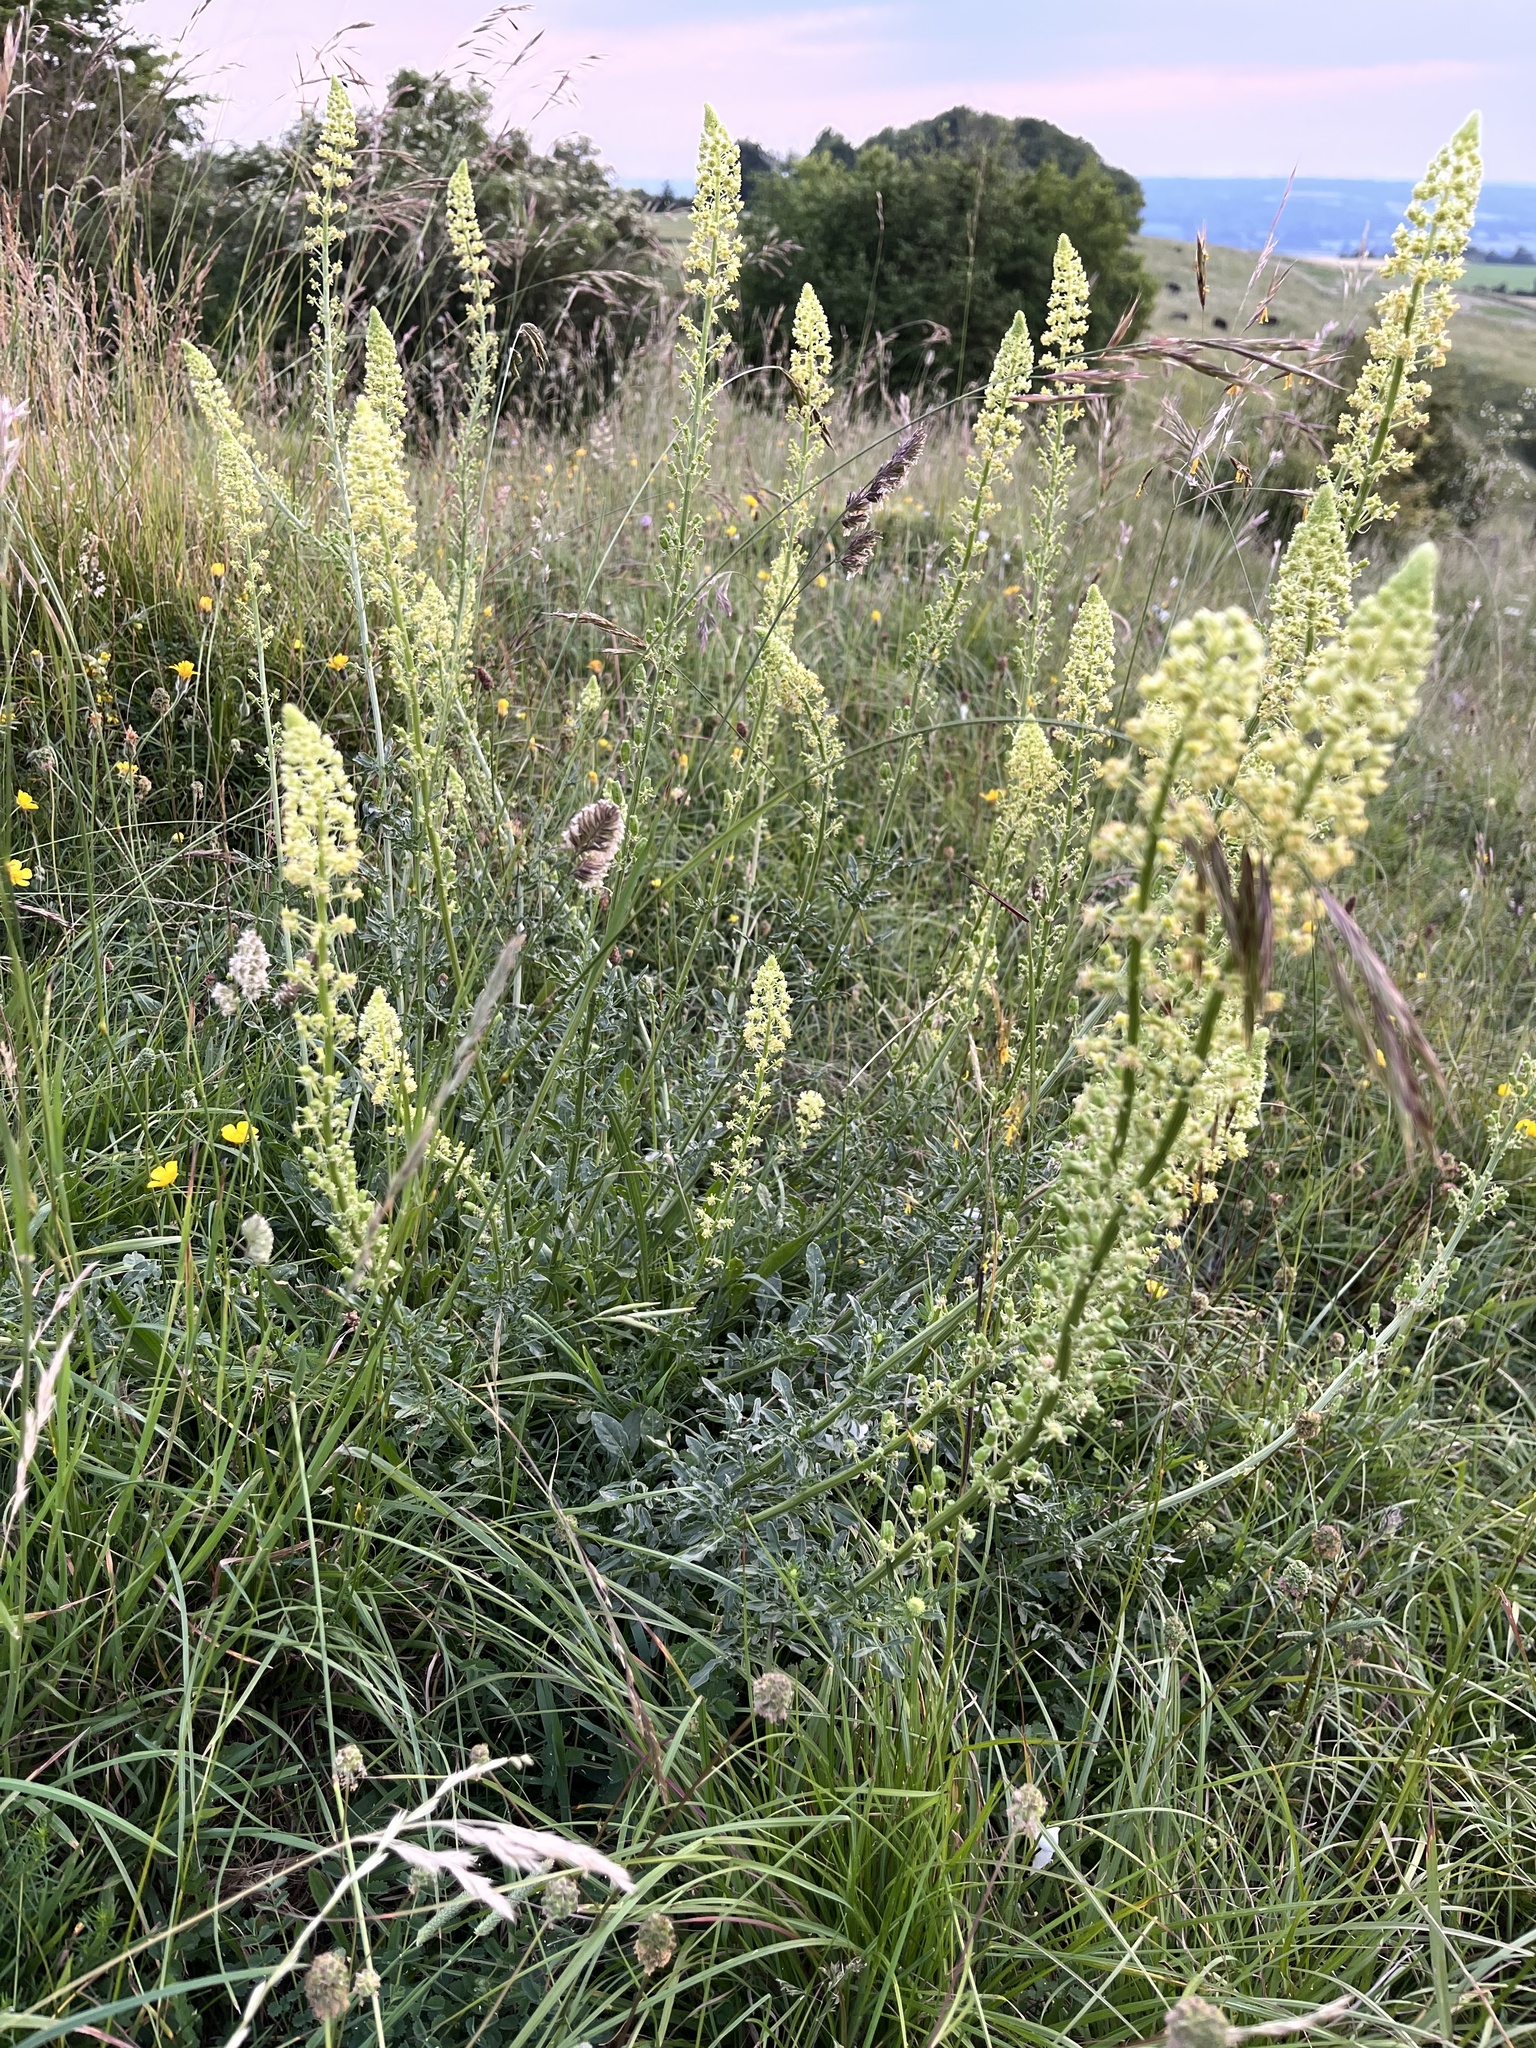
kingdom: Plantae
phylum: Tracheophyta
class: Magnoliopsida
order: Brassicales
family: Resedaceae
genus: Reseda
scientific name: Reseda lutea
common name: Wild mignonette
